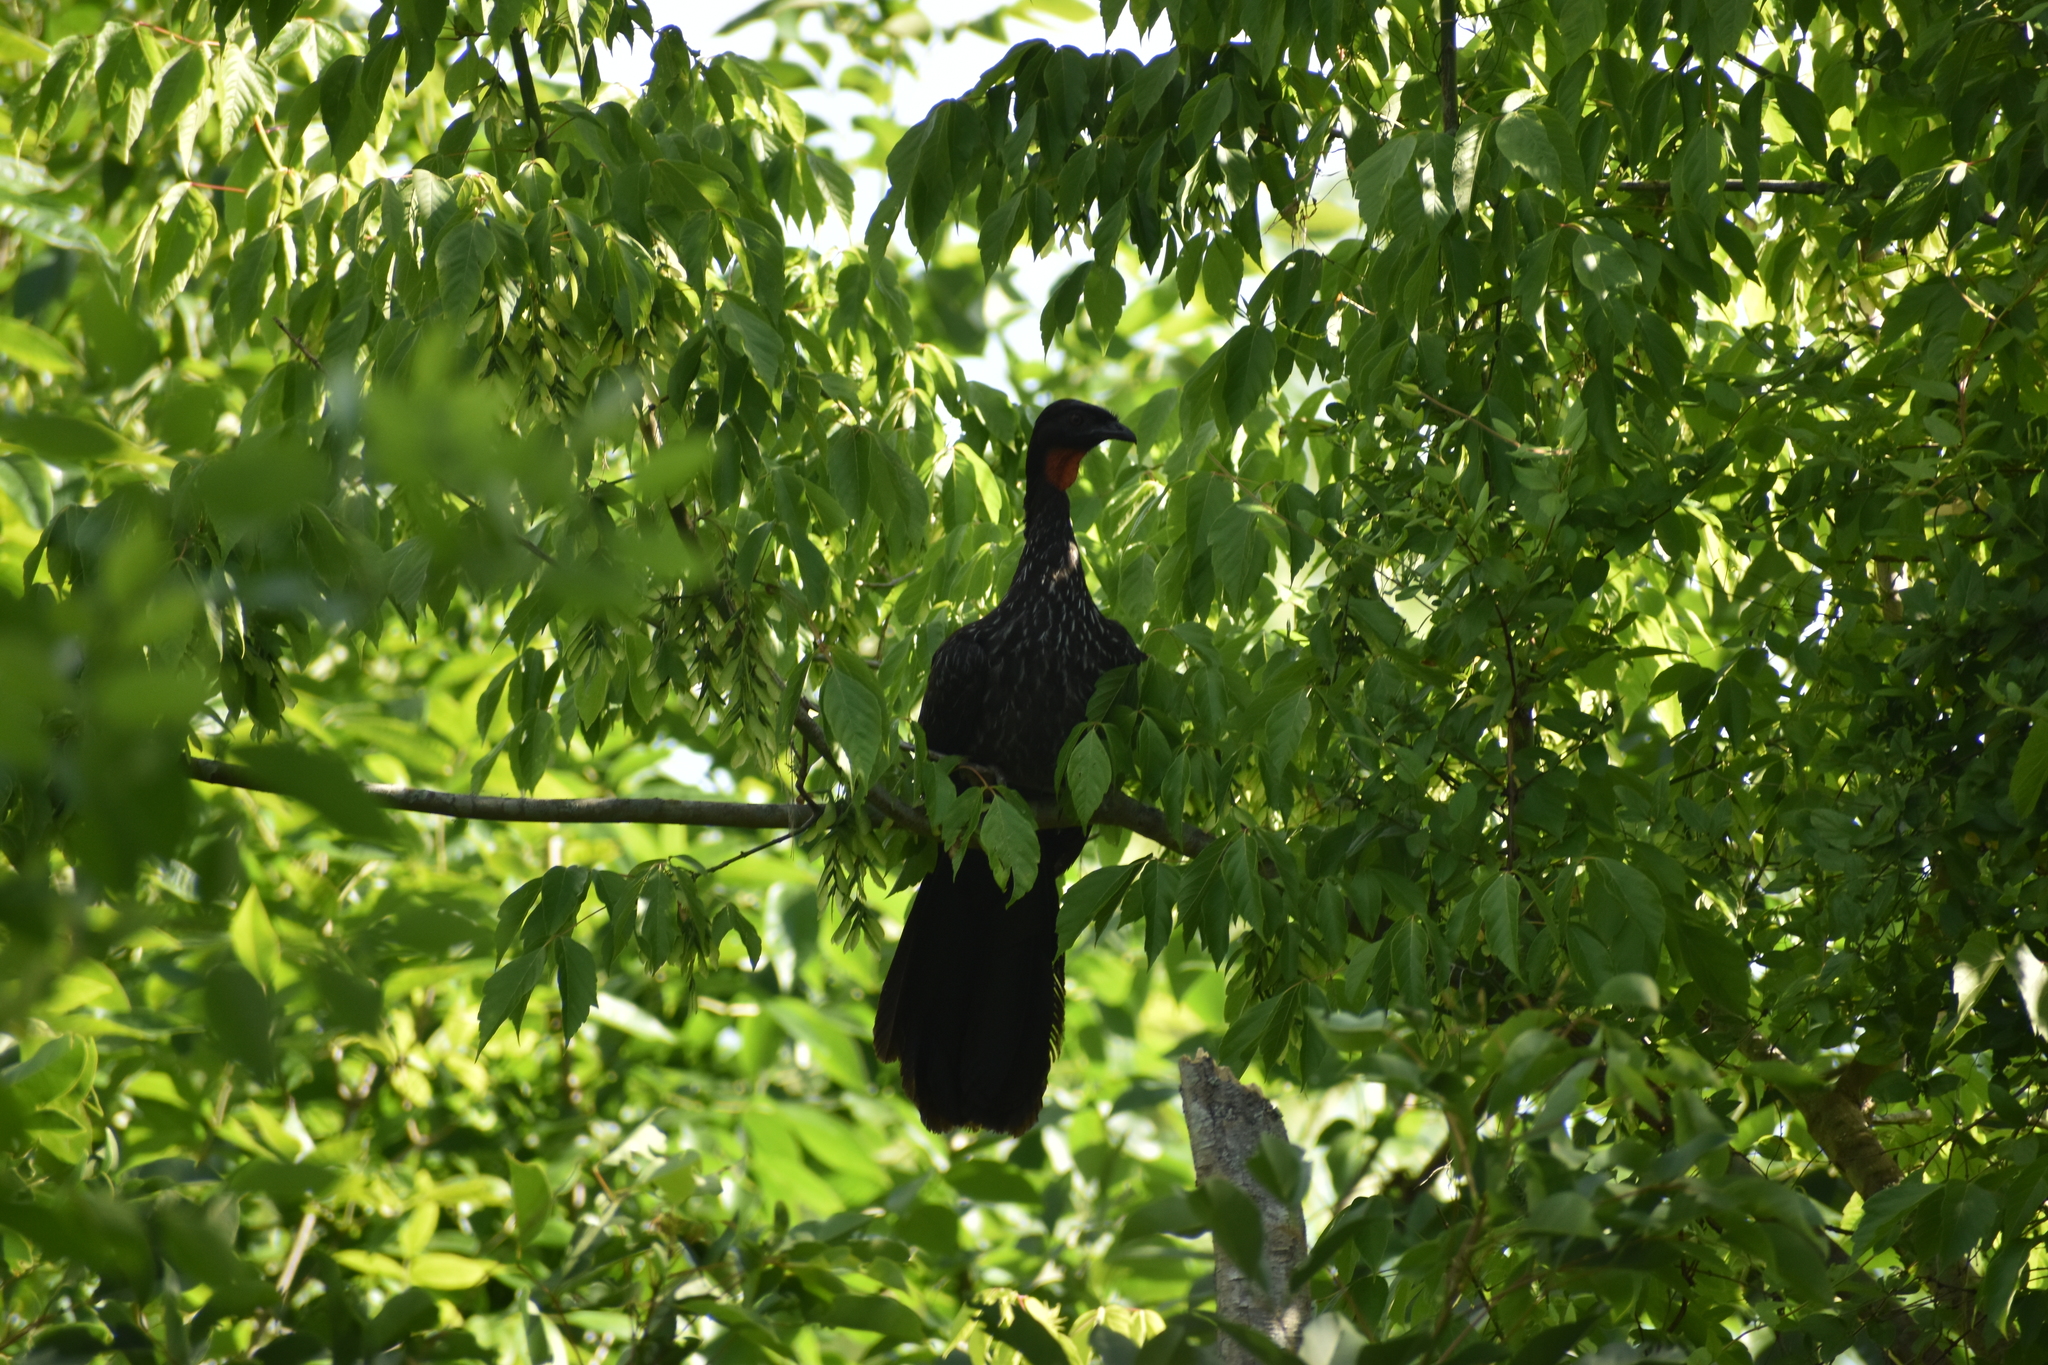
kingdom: Animalia
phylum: Chordata
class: Aves
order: Galliformes
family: Cracidae
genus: Penelope
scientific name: Penelope obscura
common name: Dusky-legged guan
